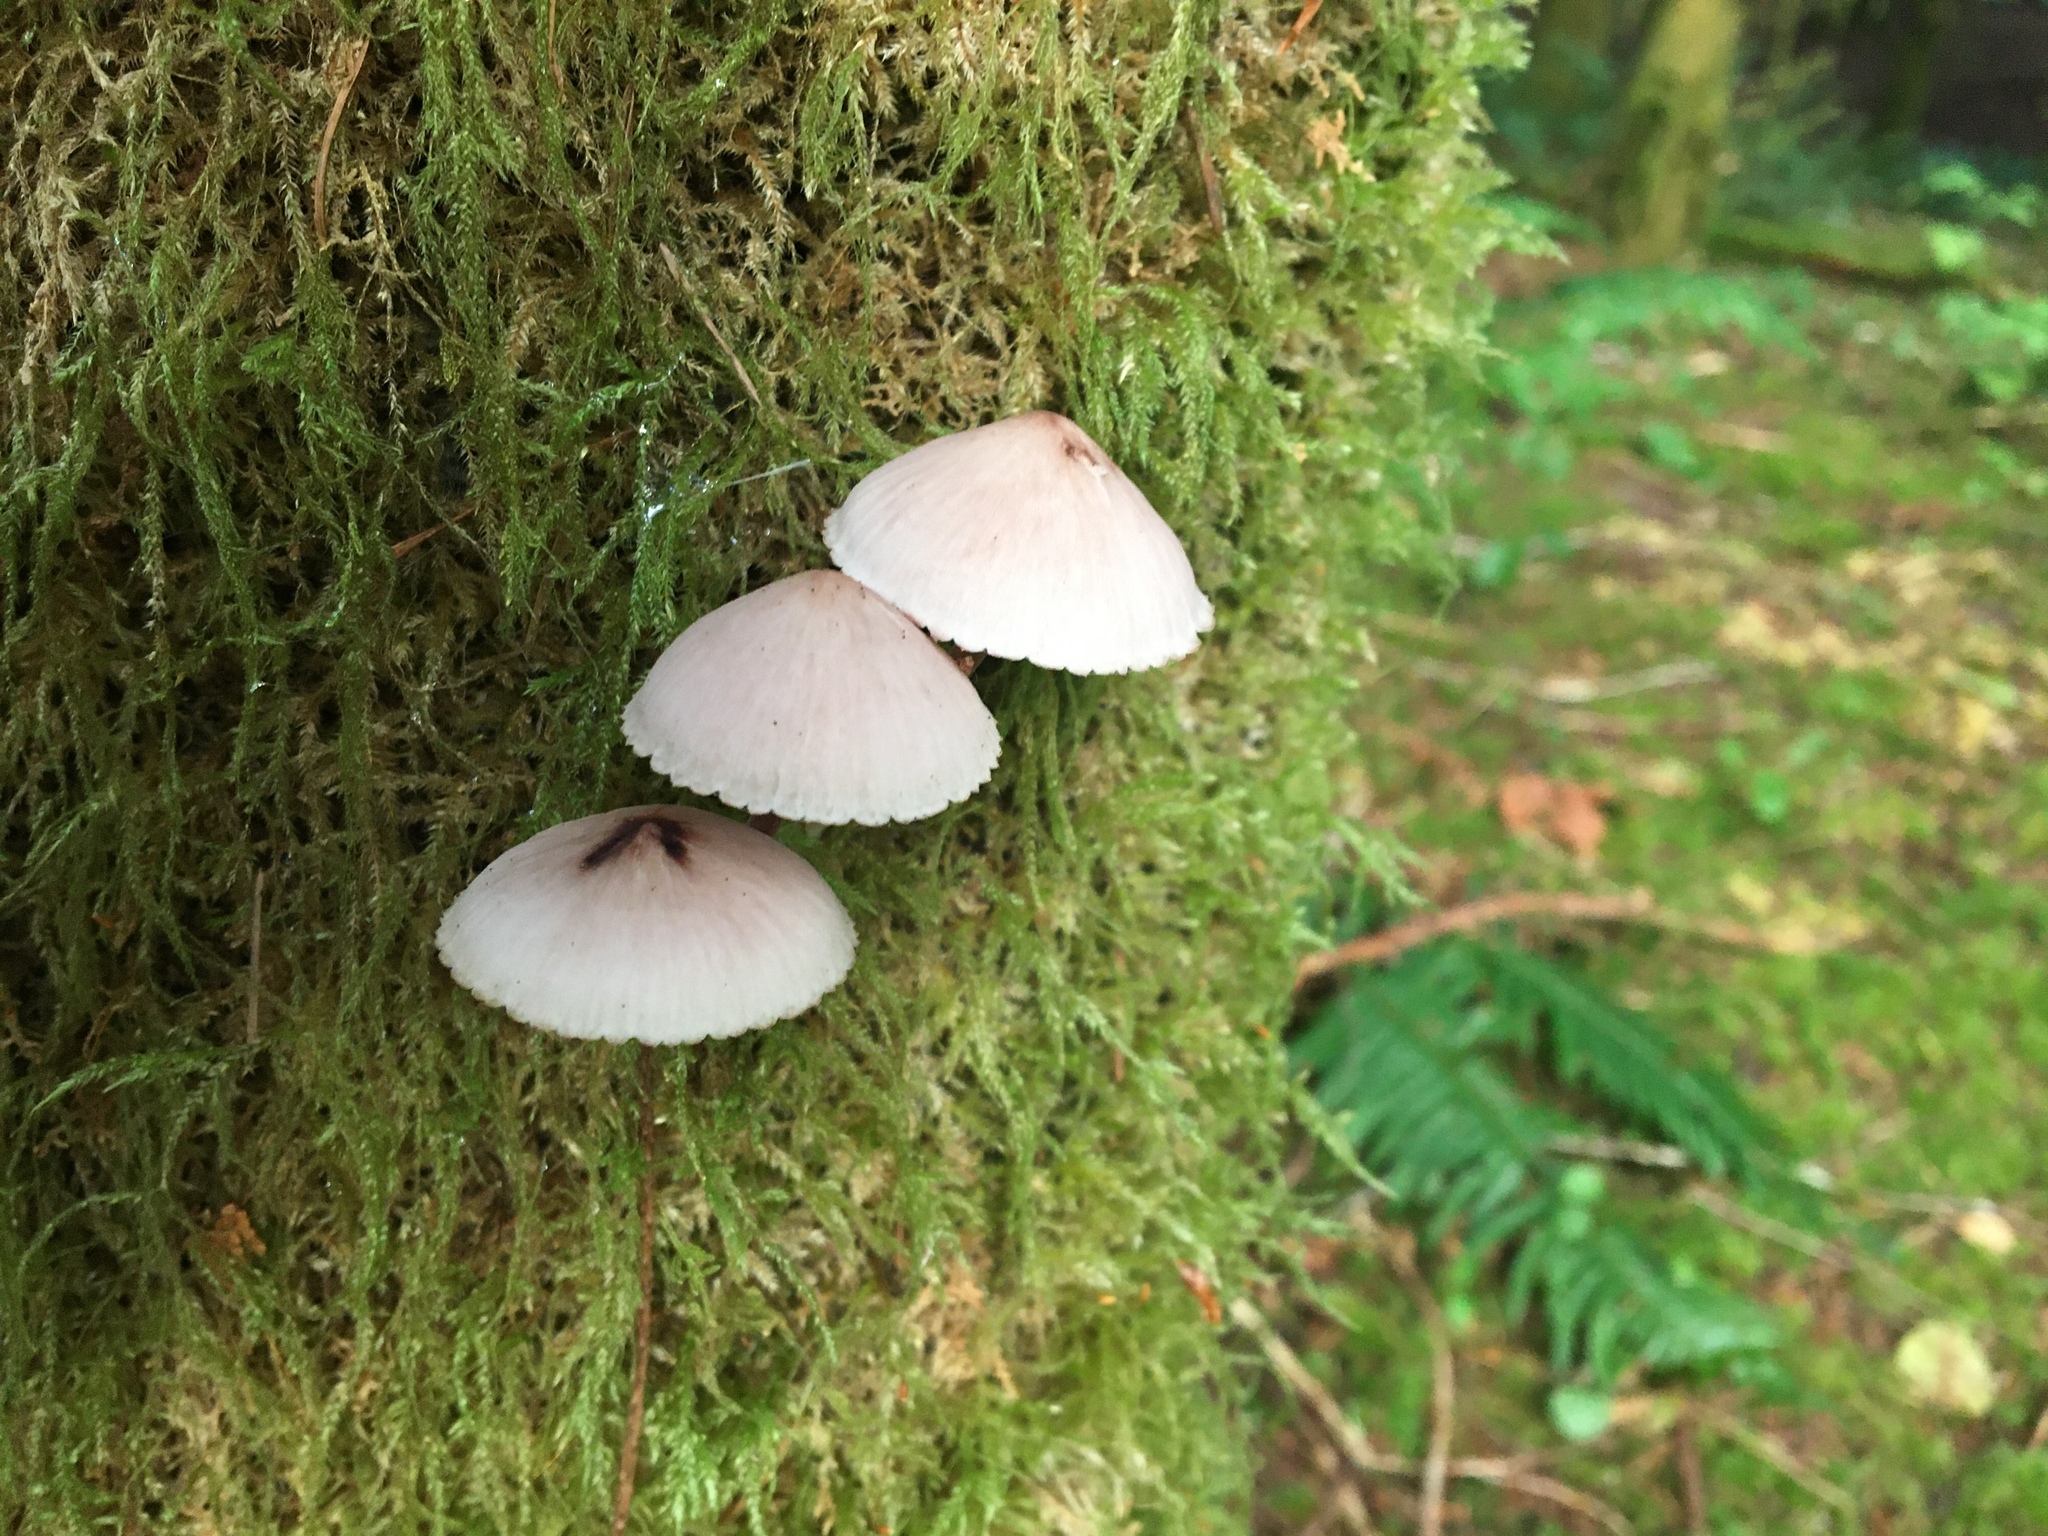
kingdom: Fungi
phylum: Basidiomycota
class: Agaricomycetes
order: Agaricales
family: Mycenaceae
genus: Mycena
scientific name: Mycena haematopus
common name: Burgundydrop bonnet
